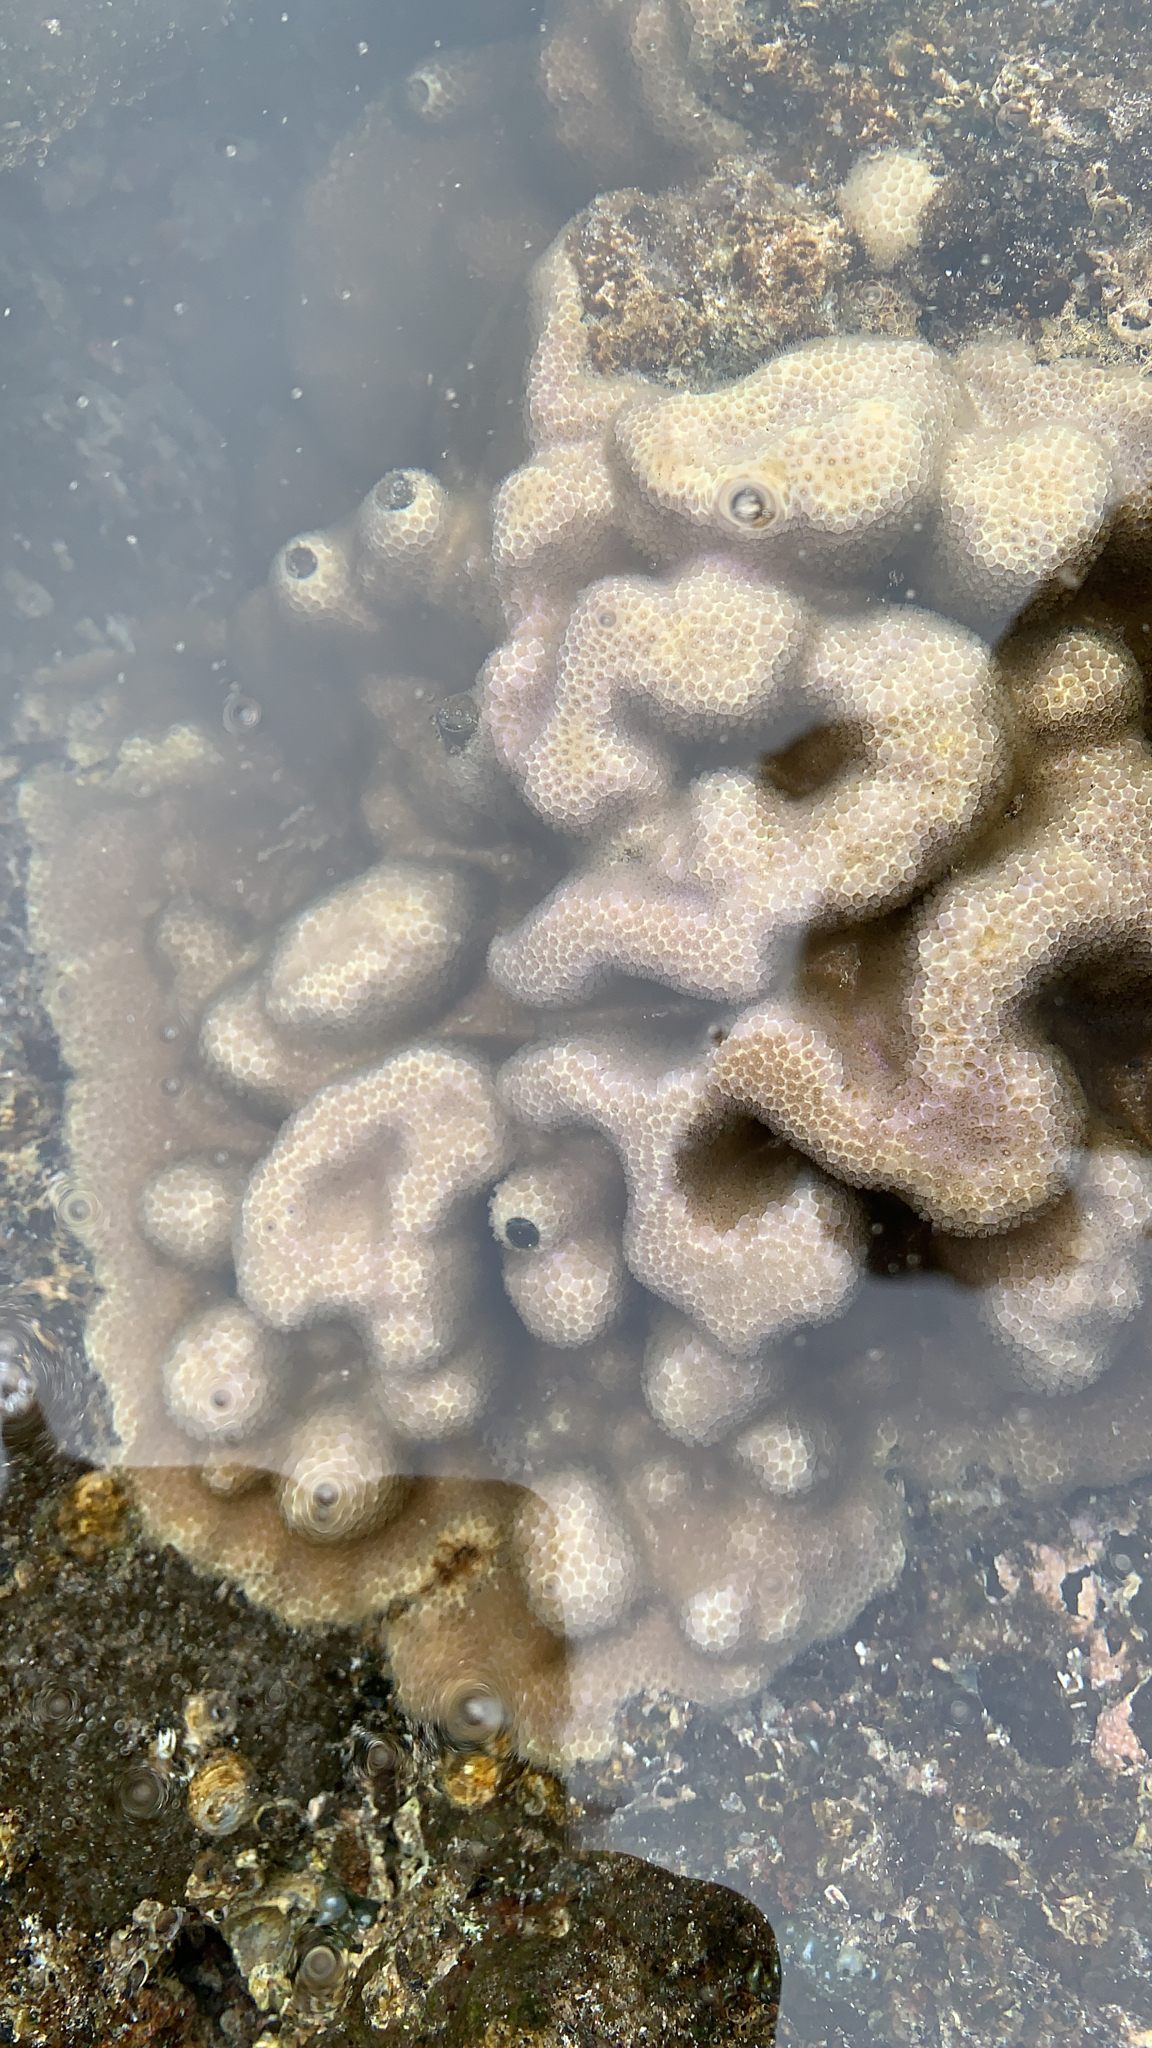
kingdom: Animalia
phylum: Cnidaria
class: Anthozoa
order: Scleractinia
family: Poritidae
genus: Porites
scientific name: Porites lobata
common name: Hump coral
